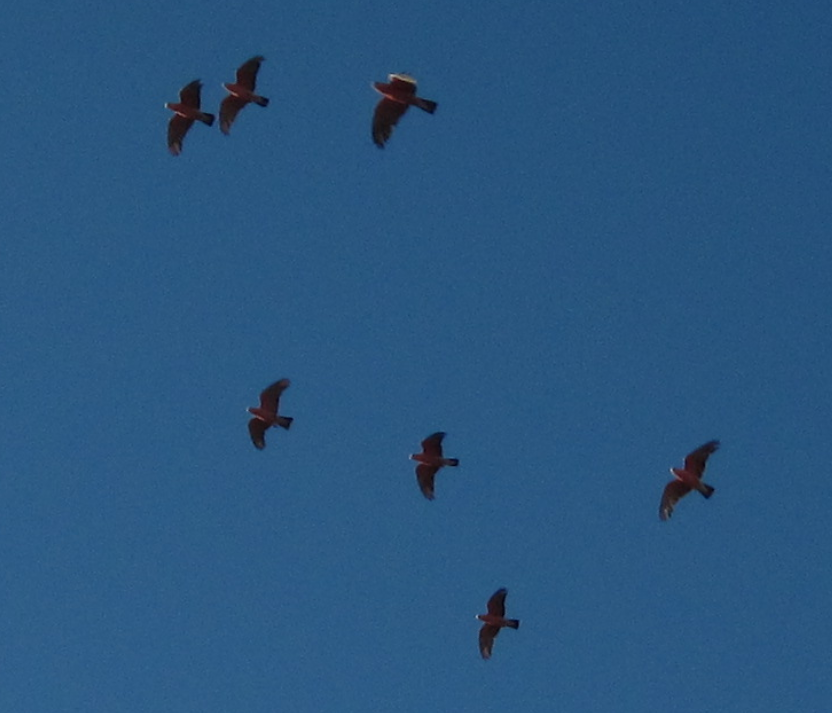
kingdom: Animalia
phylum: Chordata
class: Aves
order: Psittaciformes
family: Psittacidae
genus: Eolophus
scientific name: Eolophus roseicapilla
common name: Galah
